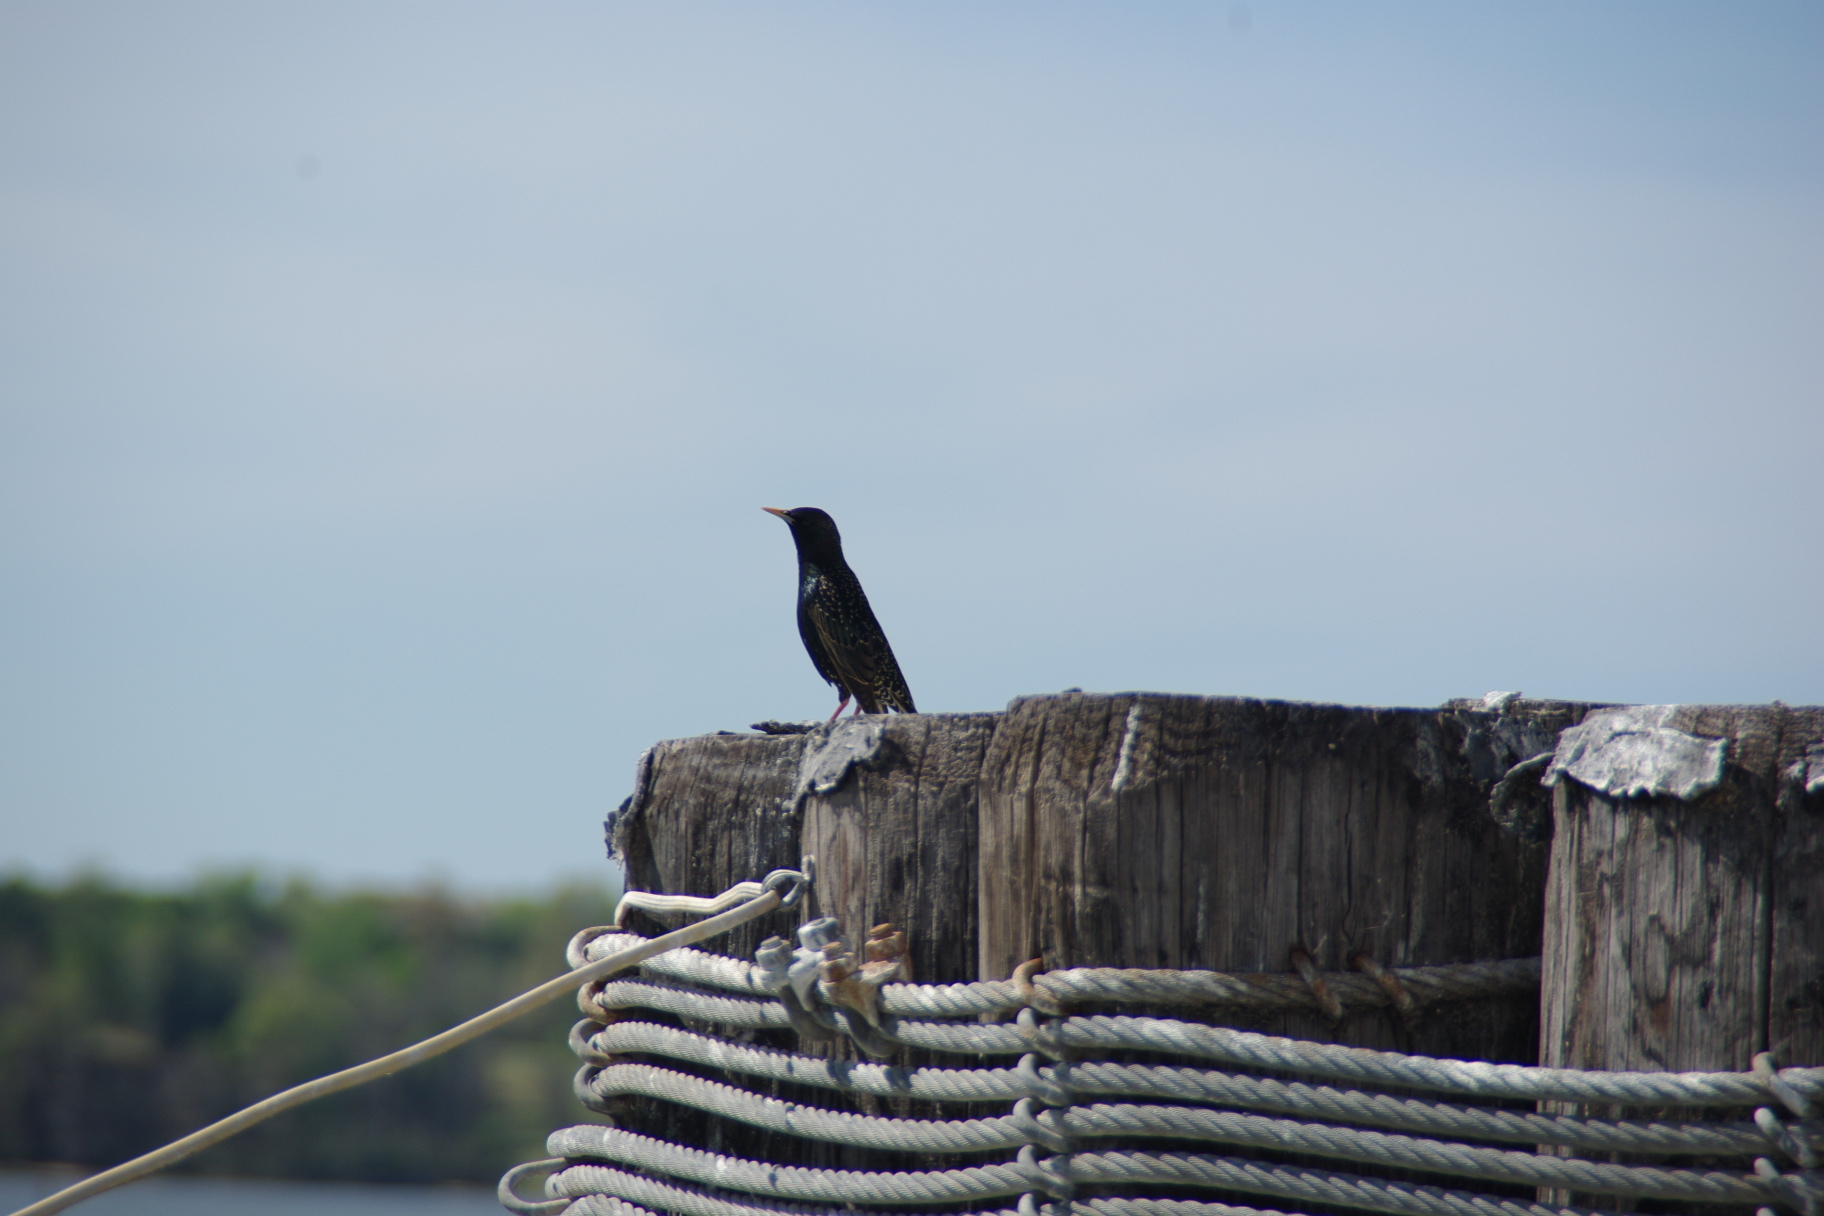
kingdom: Animalia
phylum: Chordata
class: Aves
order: Passeriformes
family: Sturnidae
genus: Sturnus
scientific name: Sturnus vulgaris
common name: Common starling
